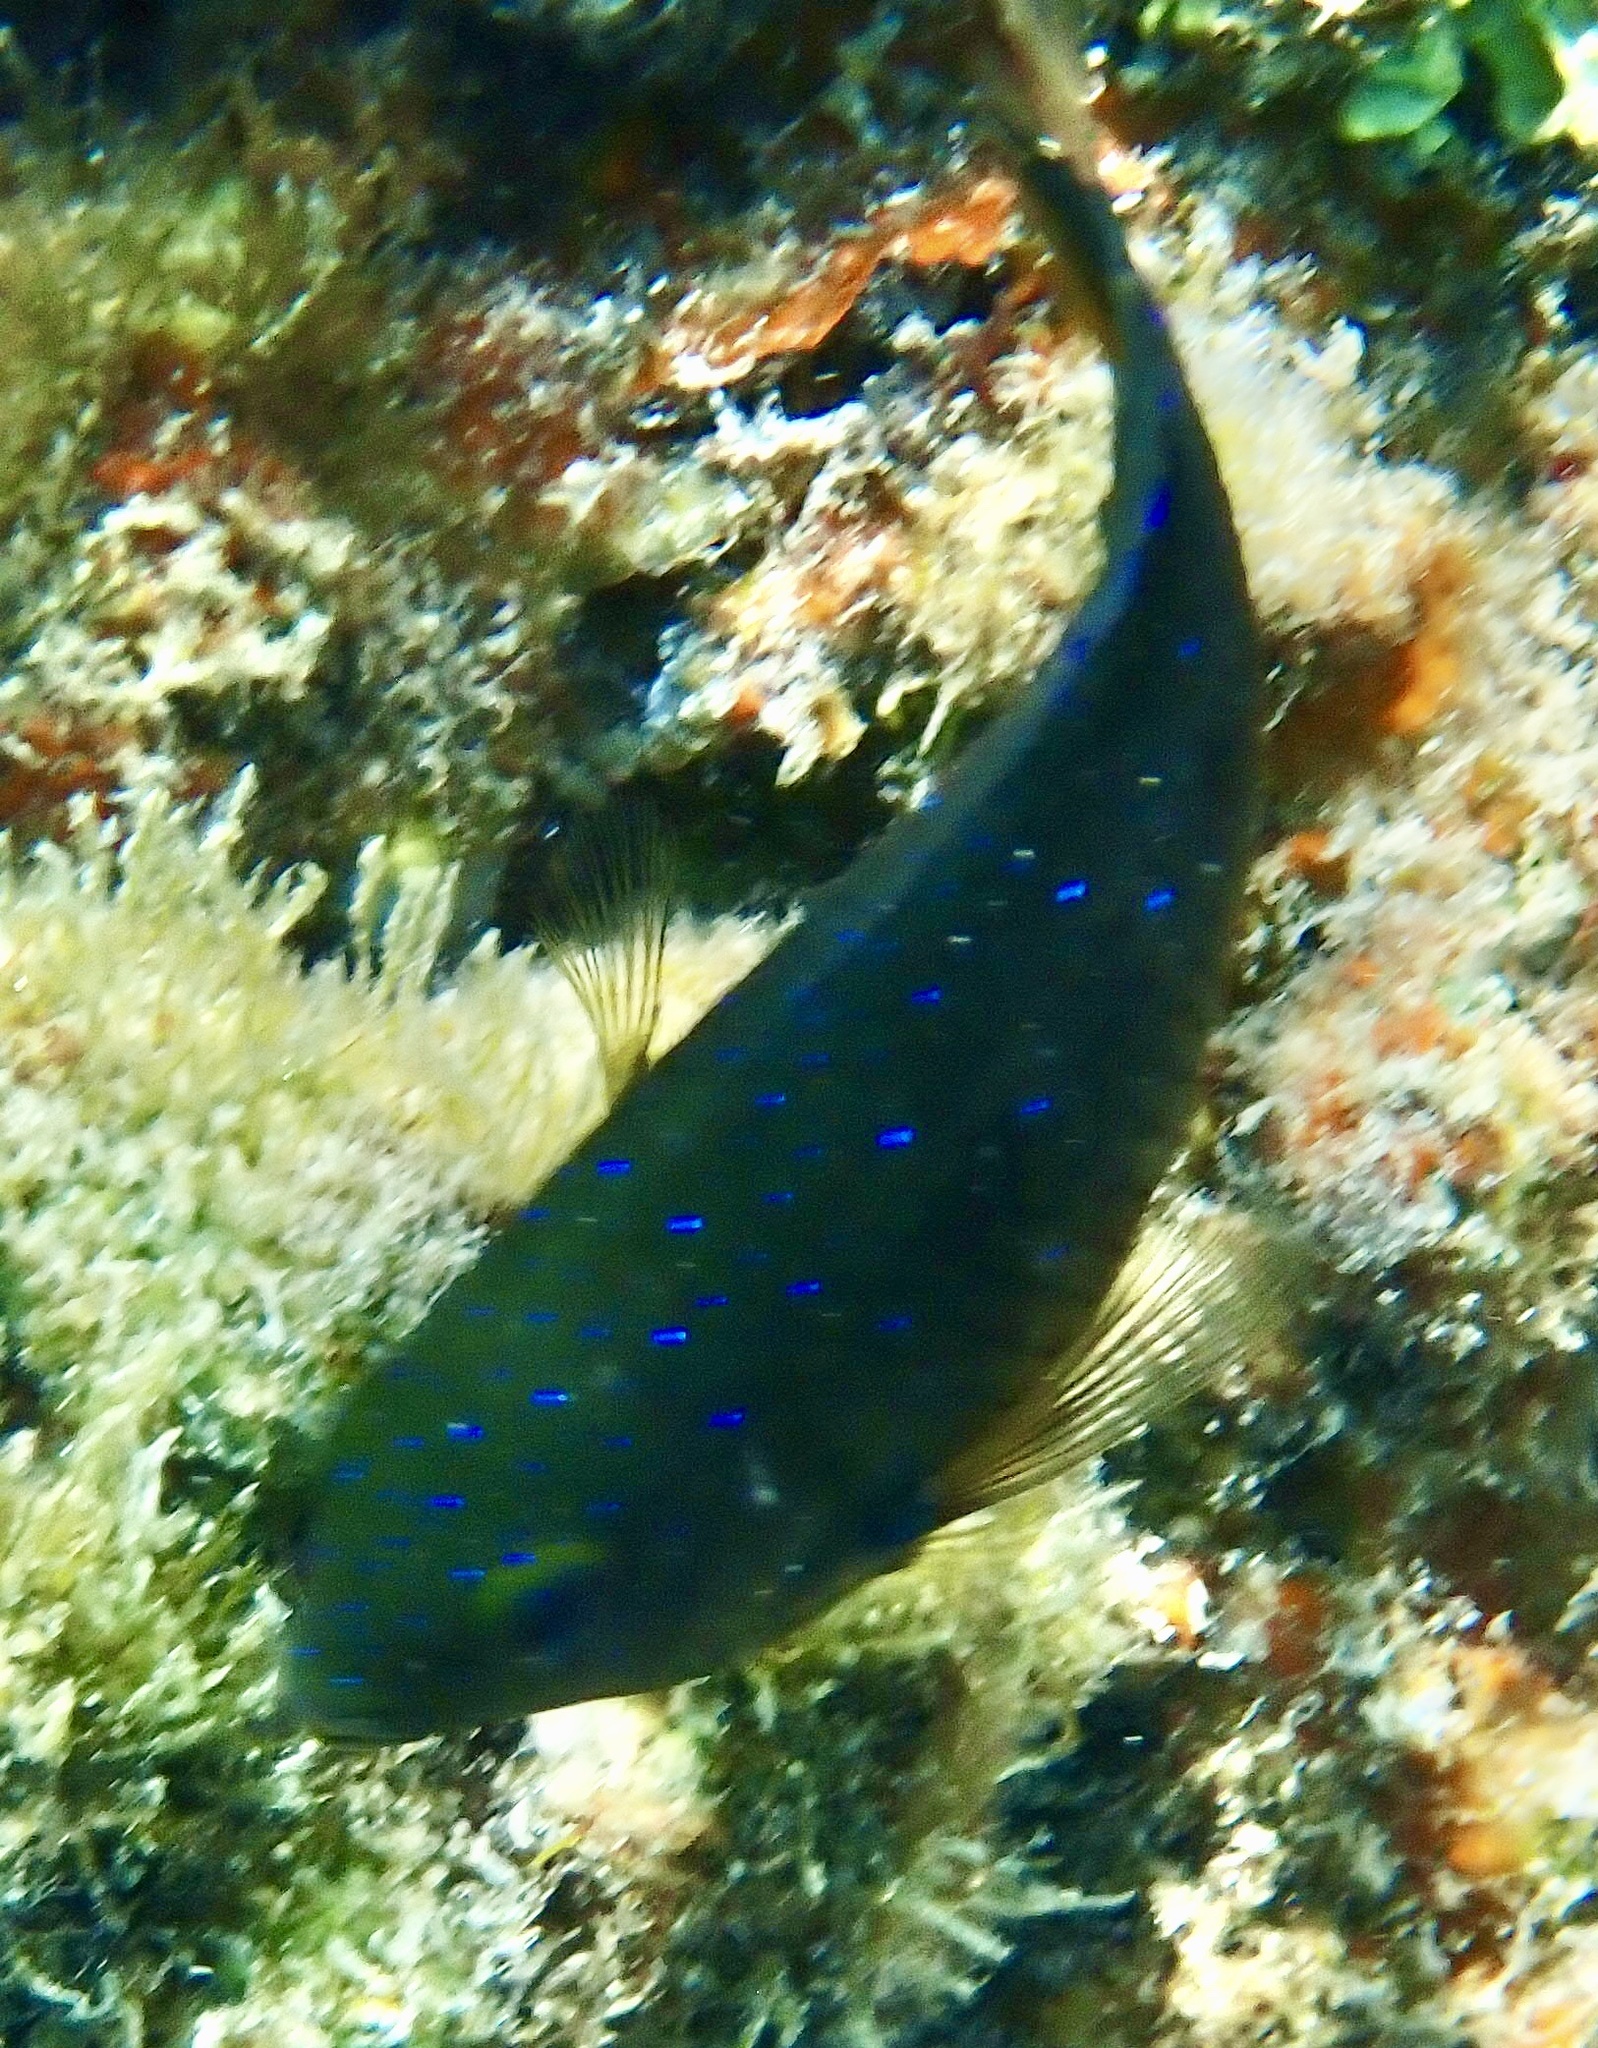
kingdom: Animalia
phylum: Chordata
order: Perciformes
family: Pomacentridae
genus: Plectroglyphidodon
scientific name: Plectroglyphidodon lacrymatus
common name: Jewel damsel
